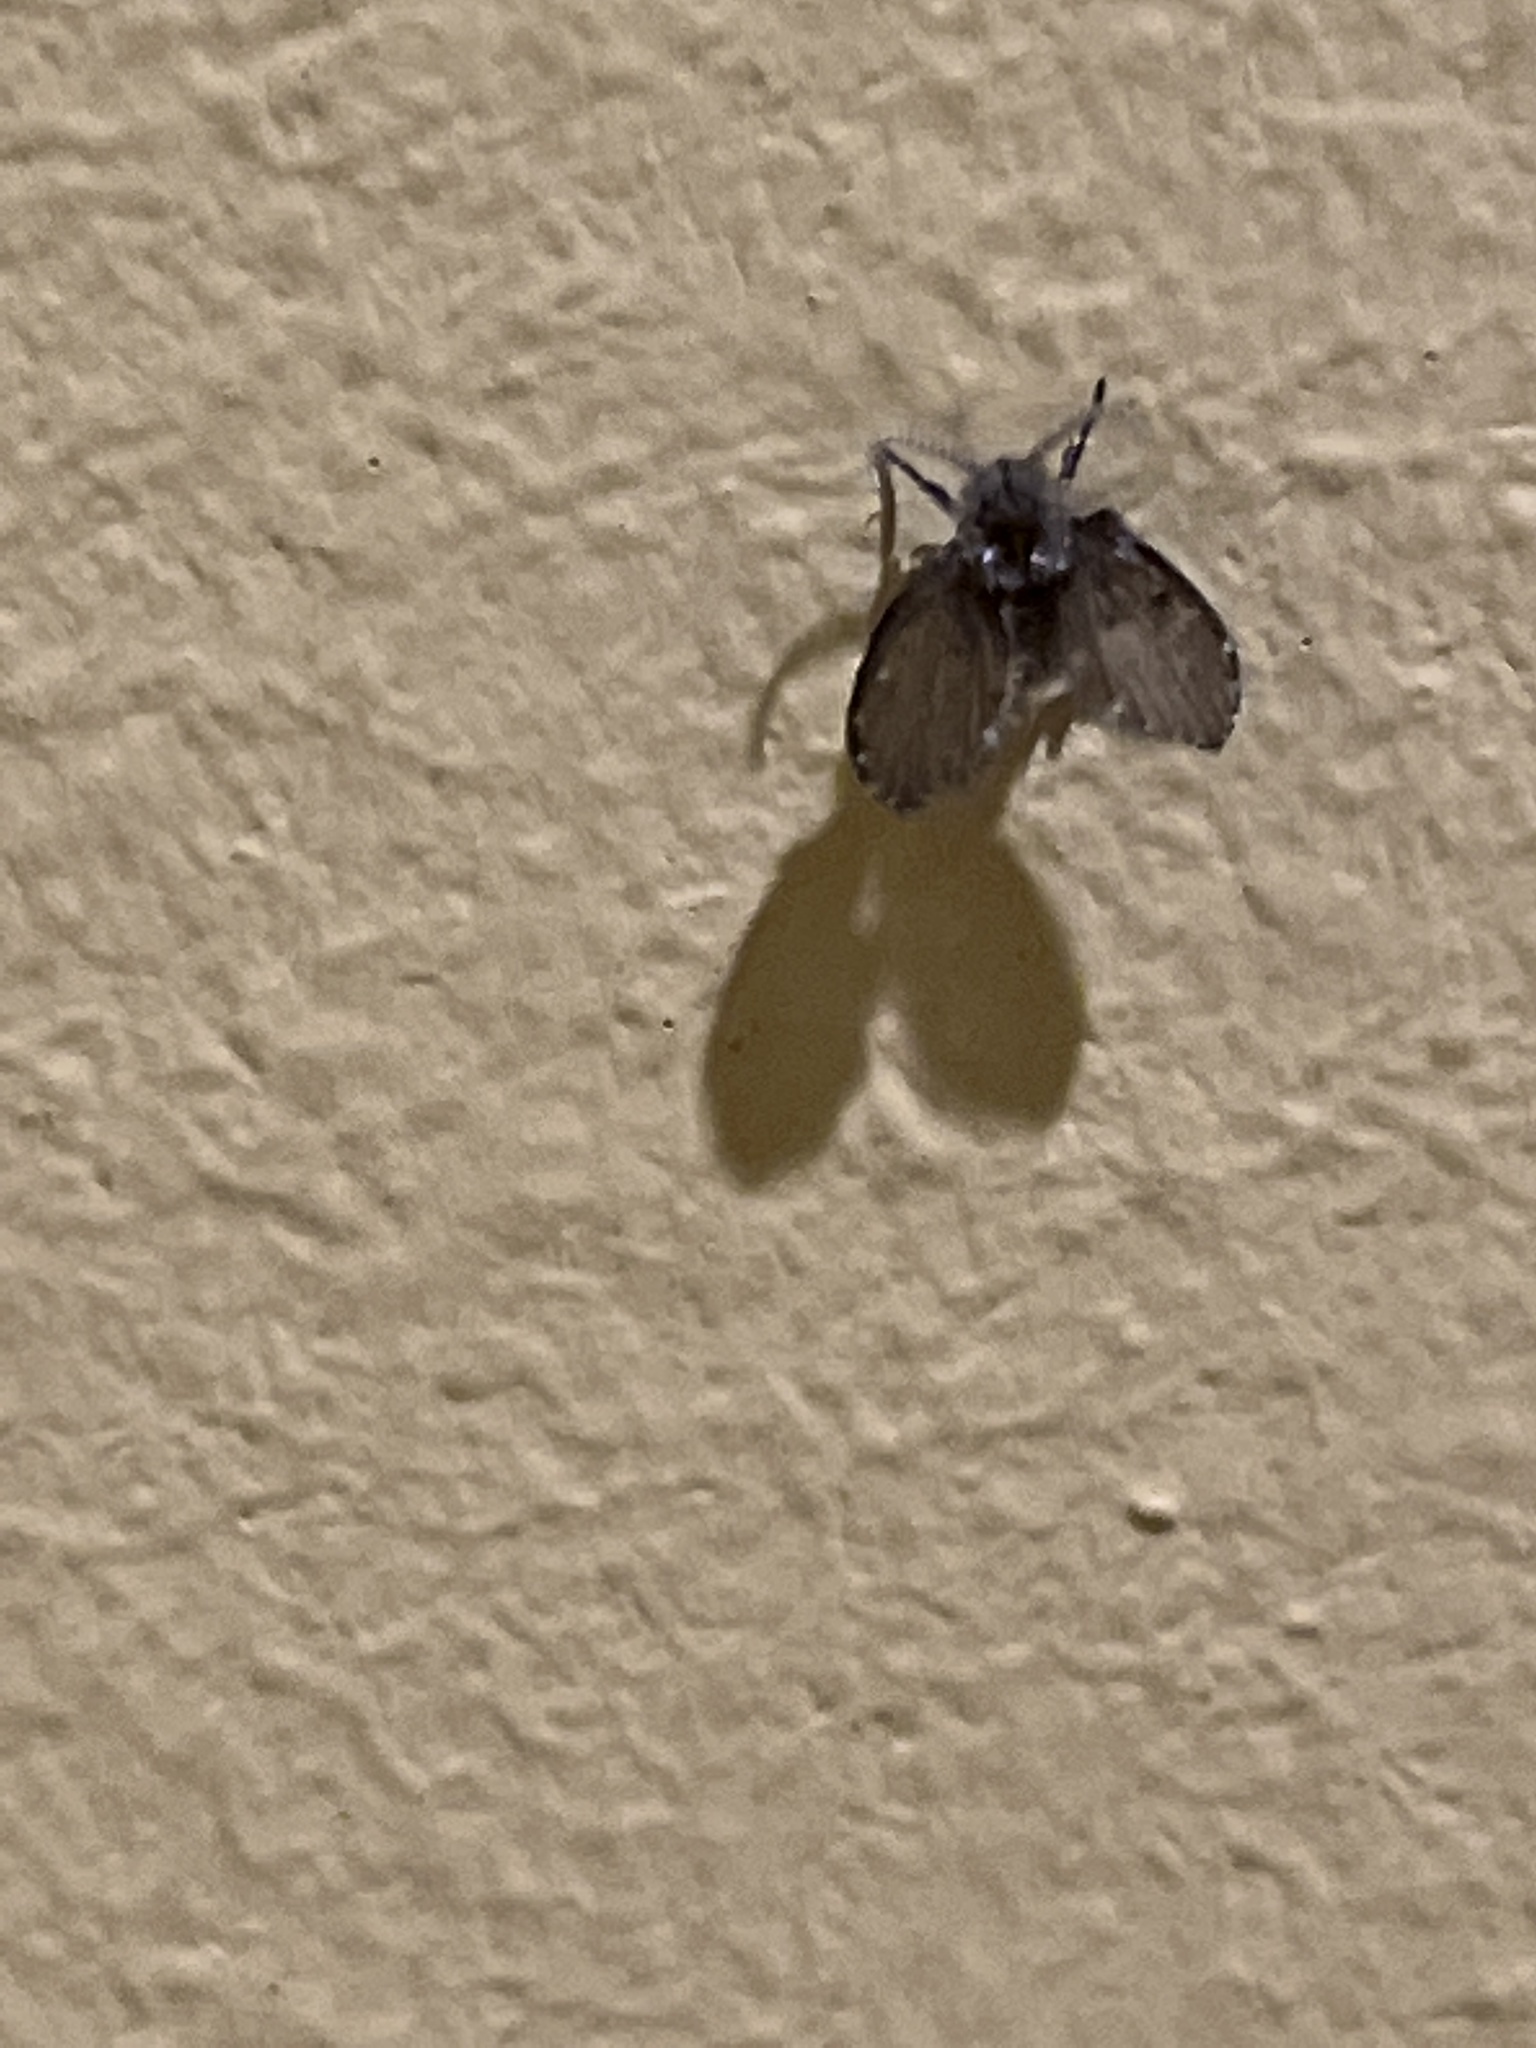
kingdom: Animalia
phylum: Arthropoda
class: Insecta
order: Diptera
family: Psychodidae
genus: Clogmia
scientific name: Clogmia albipunctatus
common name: White-spotted moth fly
